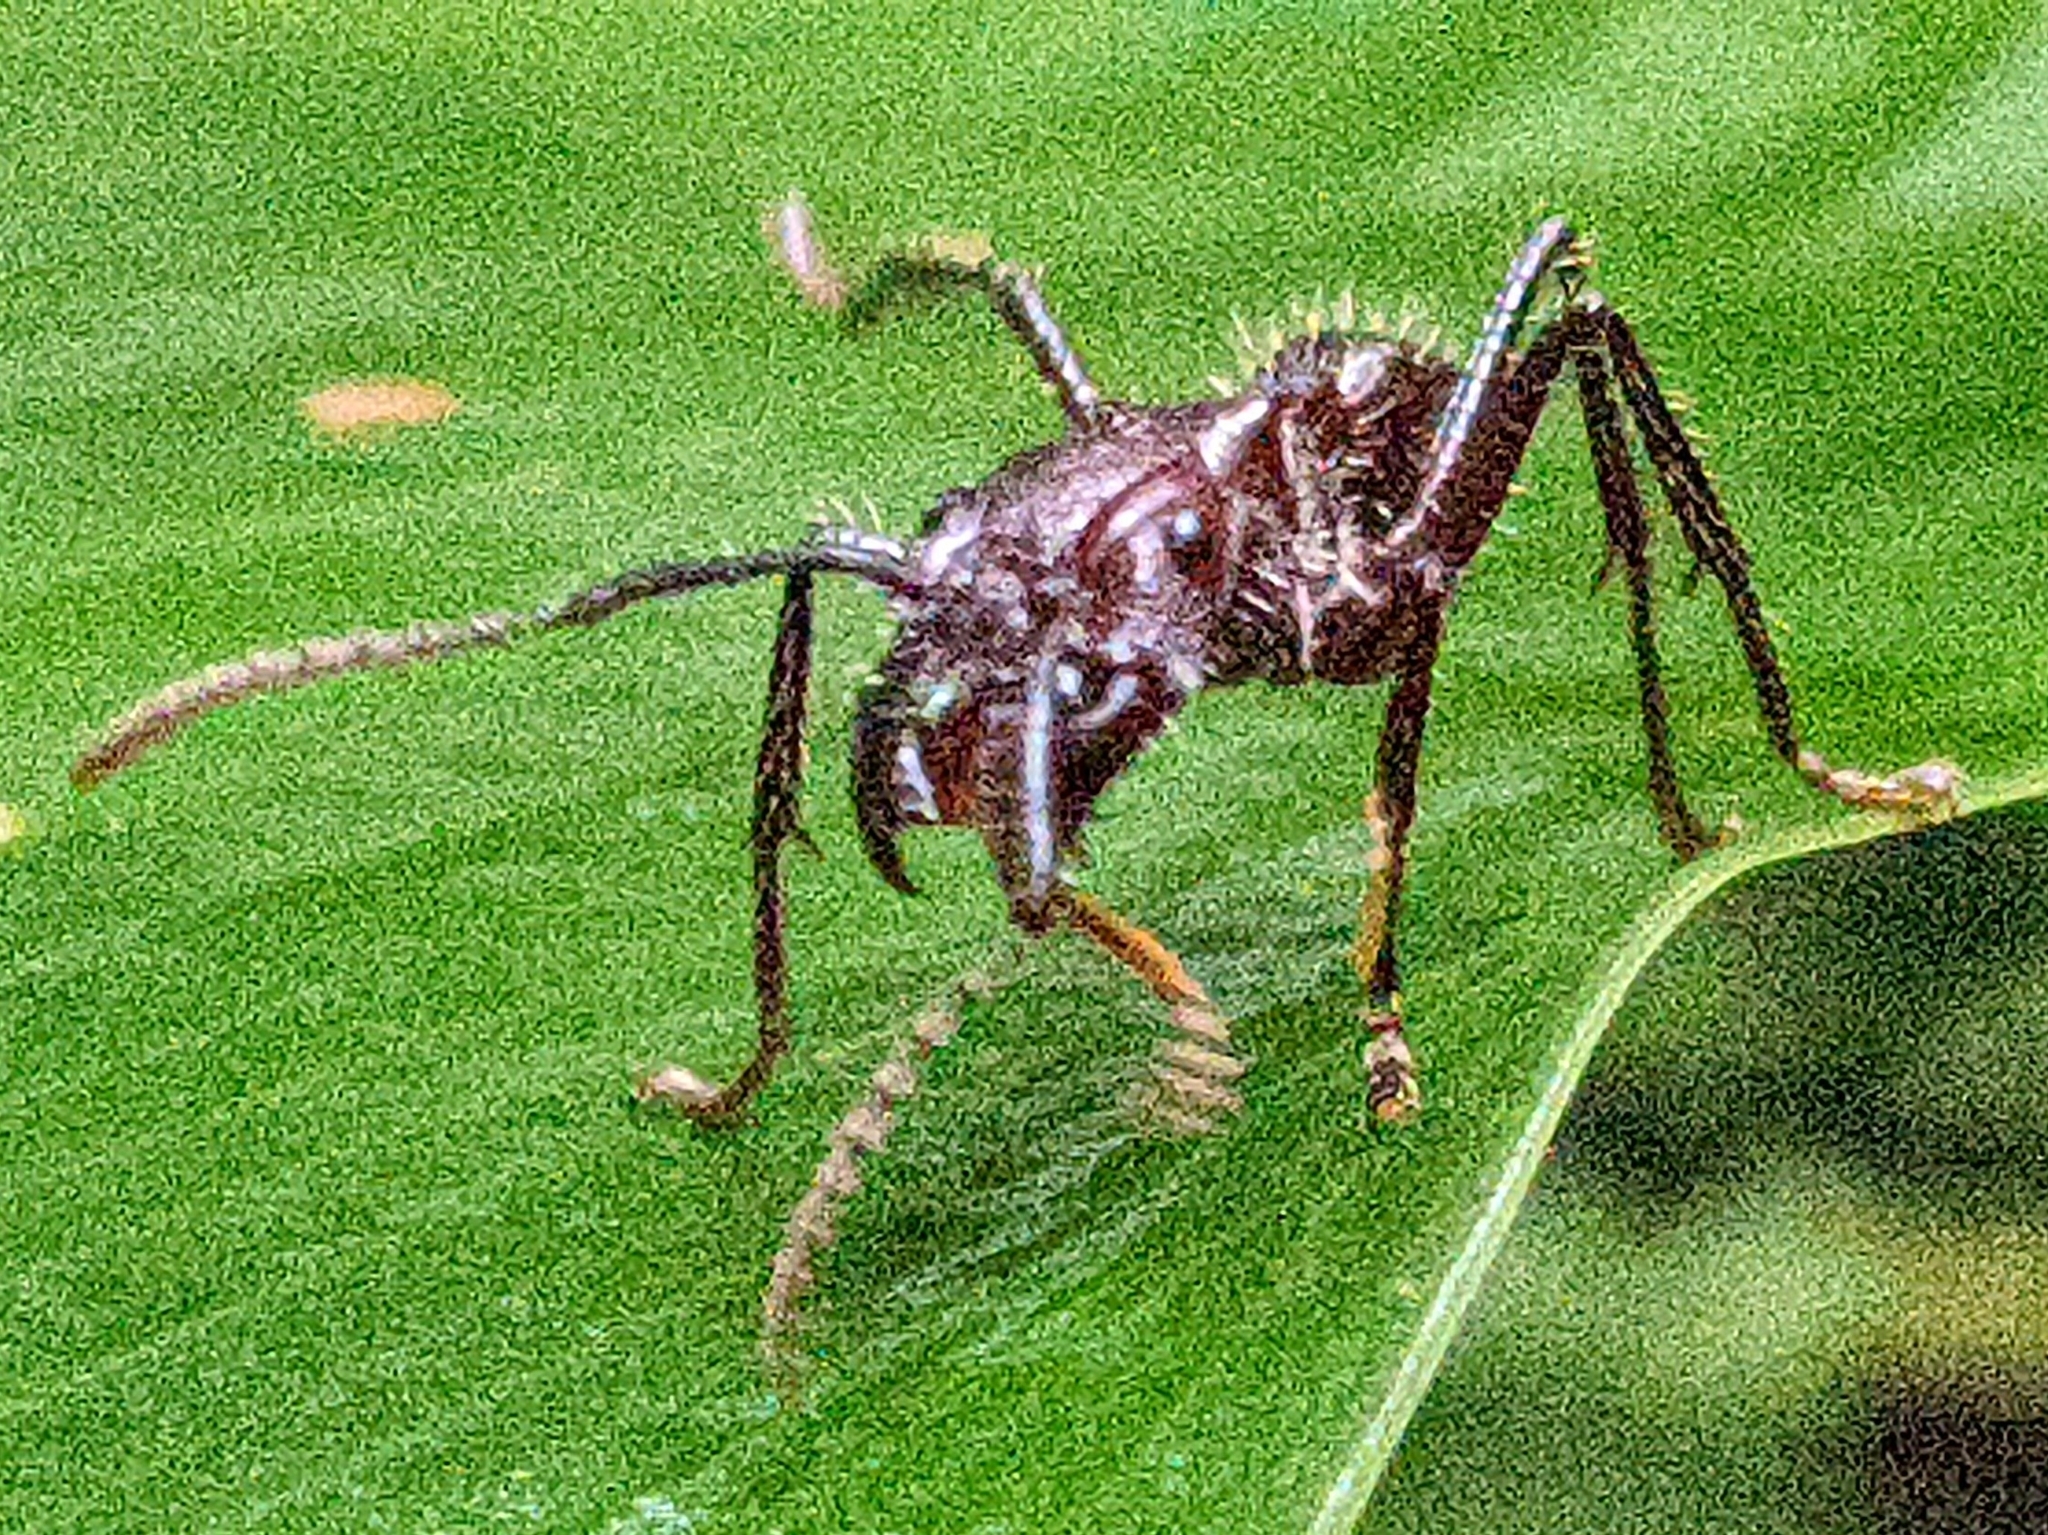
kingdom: Animalia
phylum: Arthropoda
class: Insecta
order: Hymenoptera
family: Formicidae
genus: Paraponera
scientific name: Paraponera clavata
